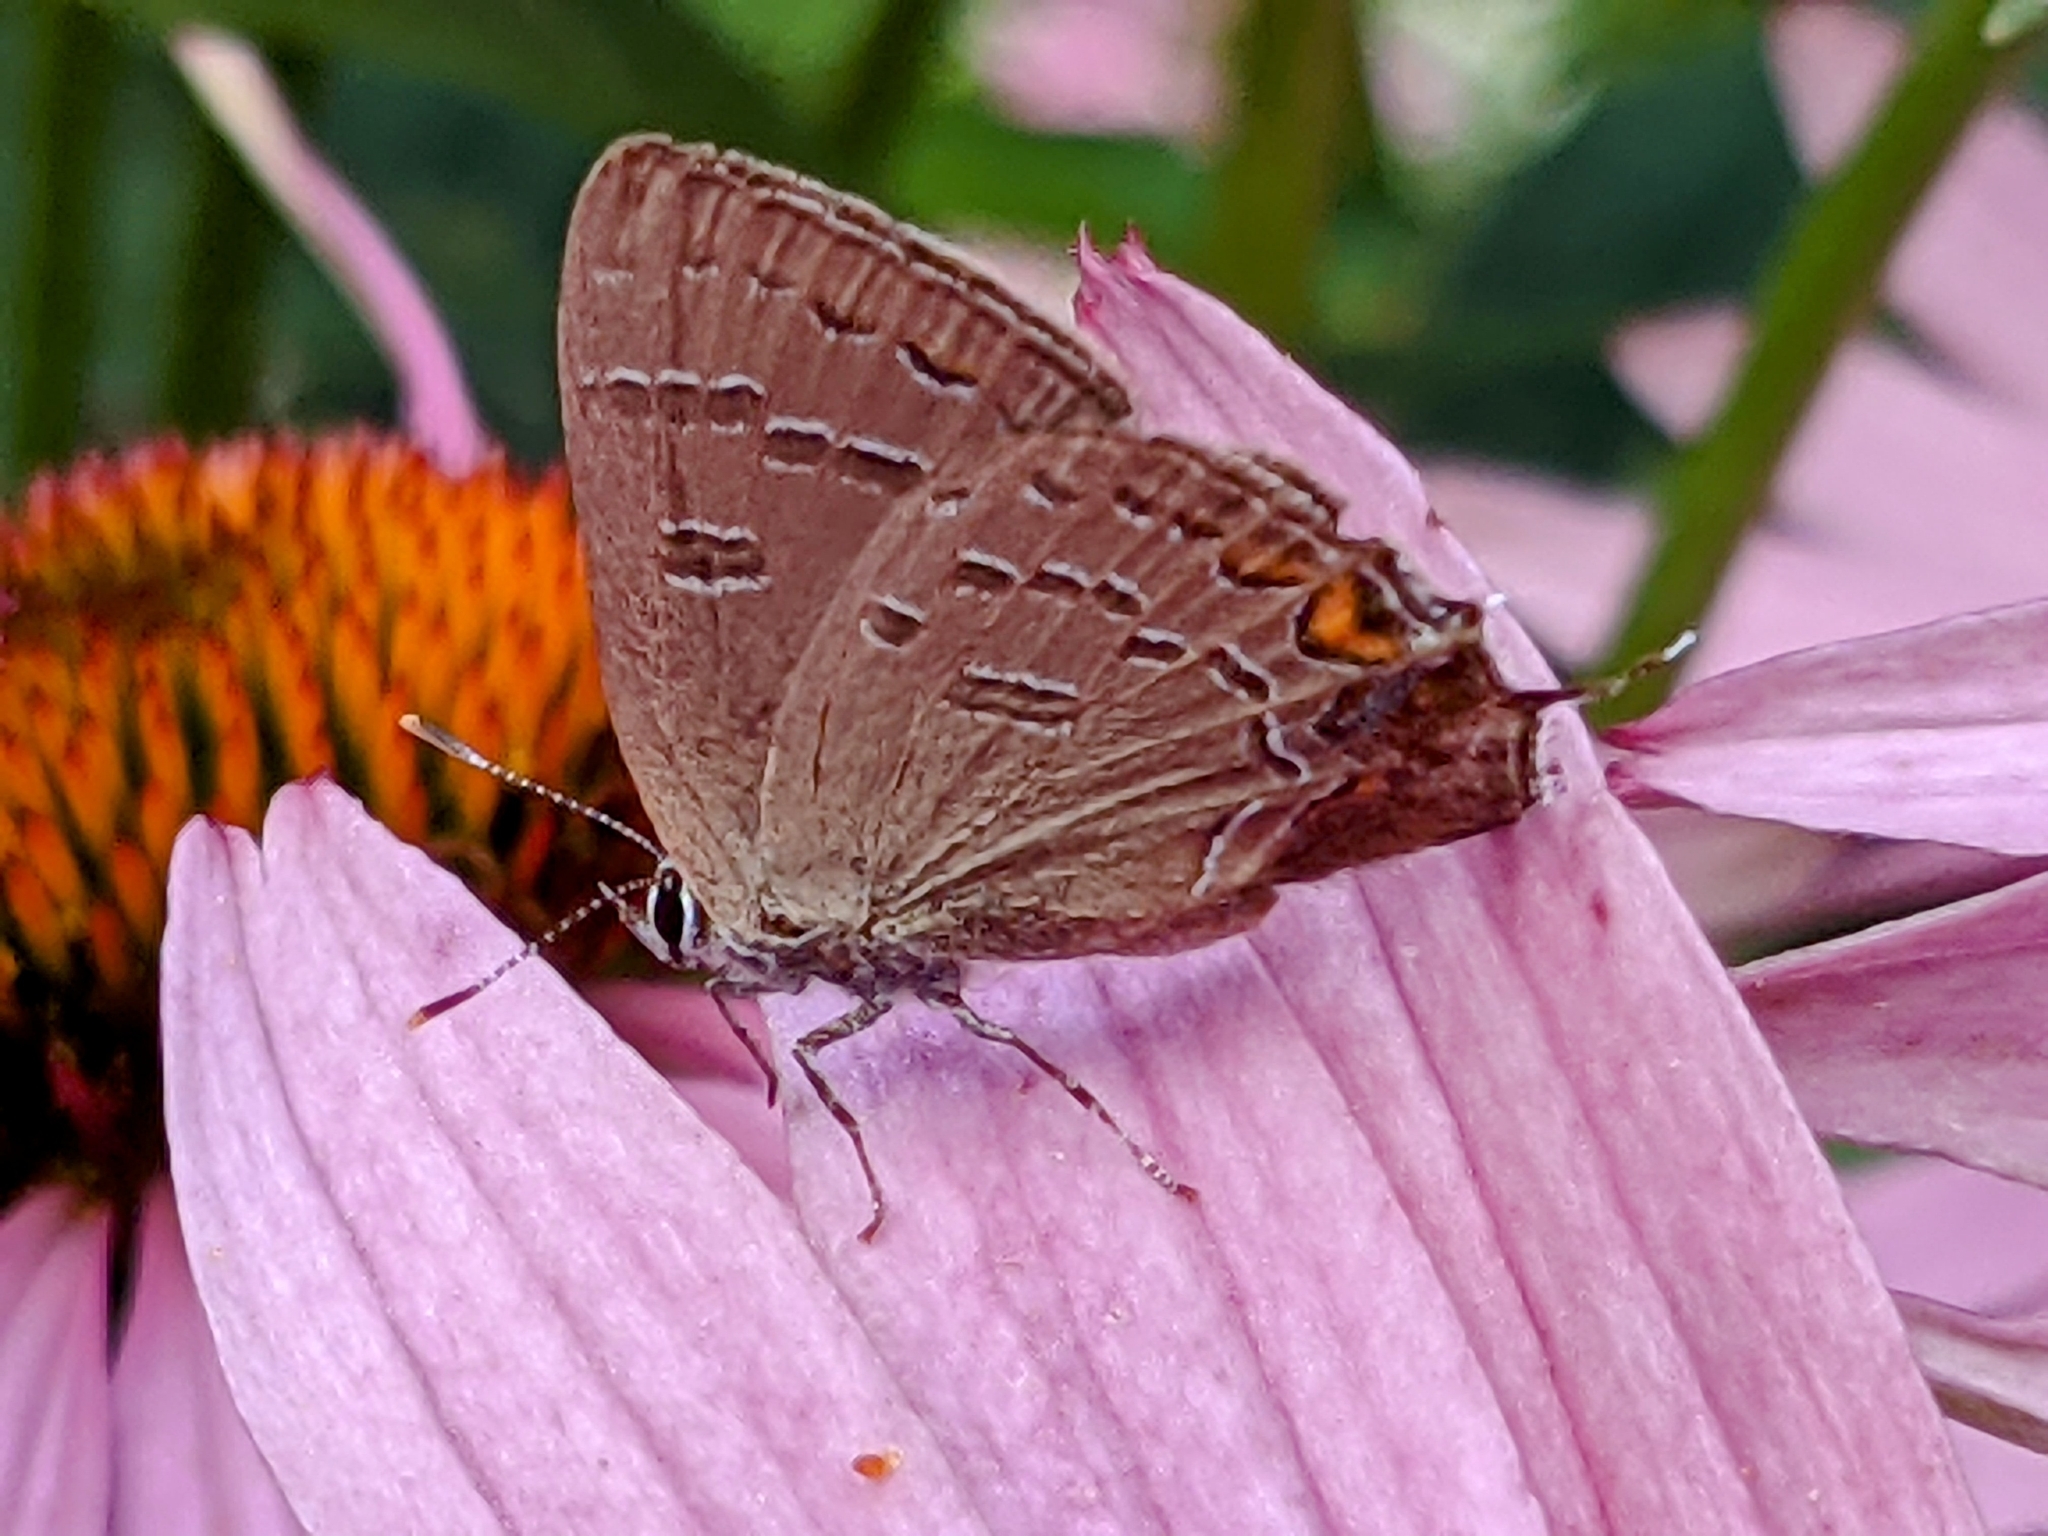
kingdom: Animalia
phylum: Arthropoda
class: Insecta
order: Lepidoptera
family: Lycaenidae
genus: Satyrium
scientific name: Satyrium calanus
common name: Banded hairstreak
